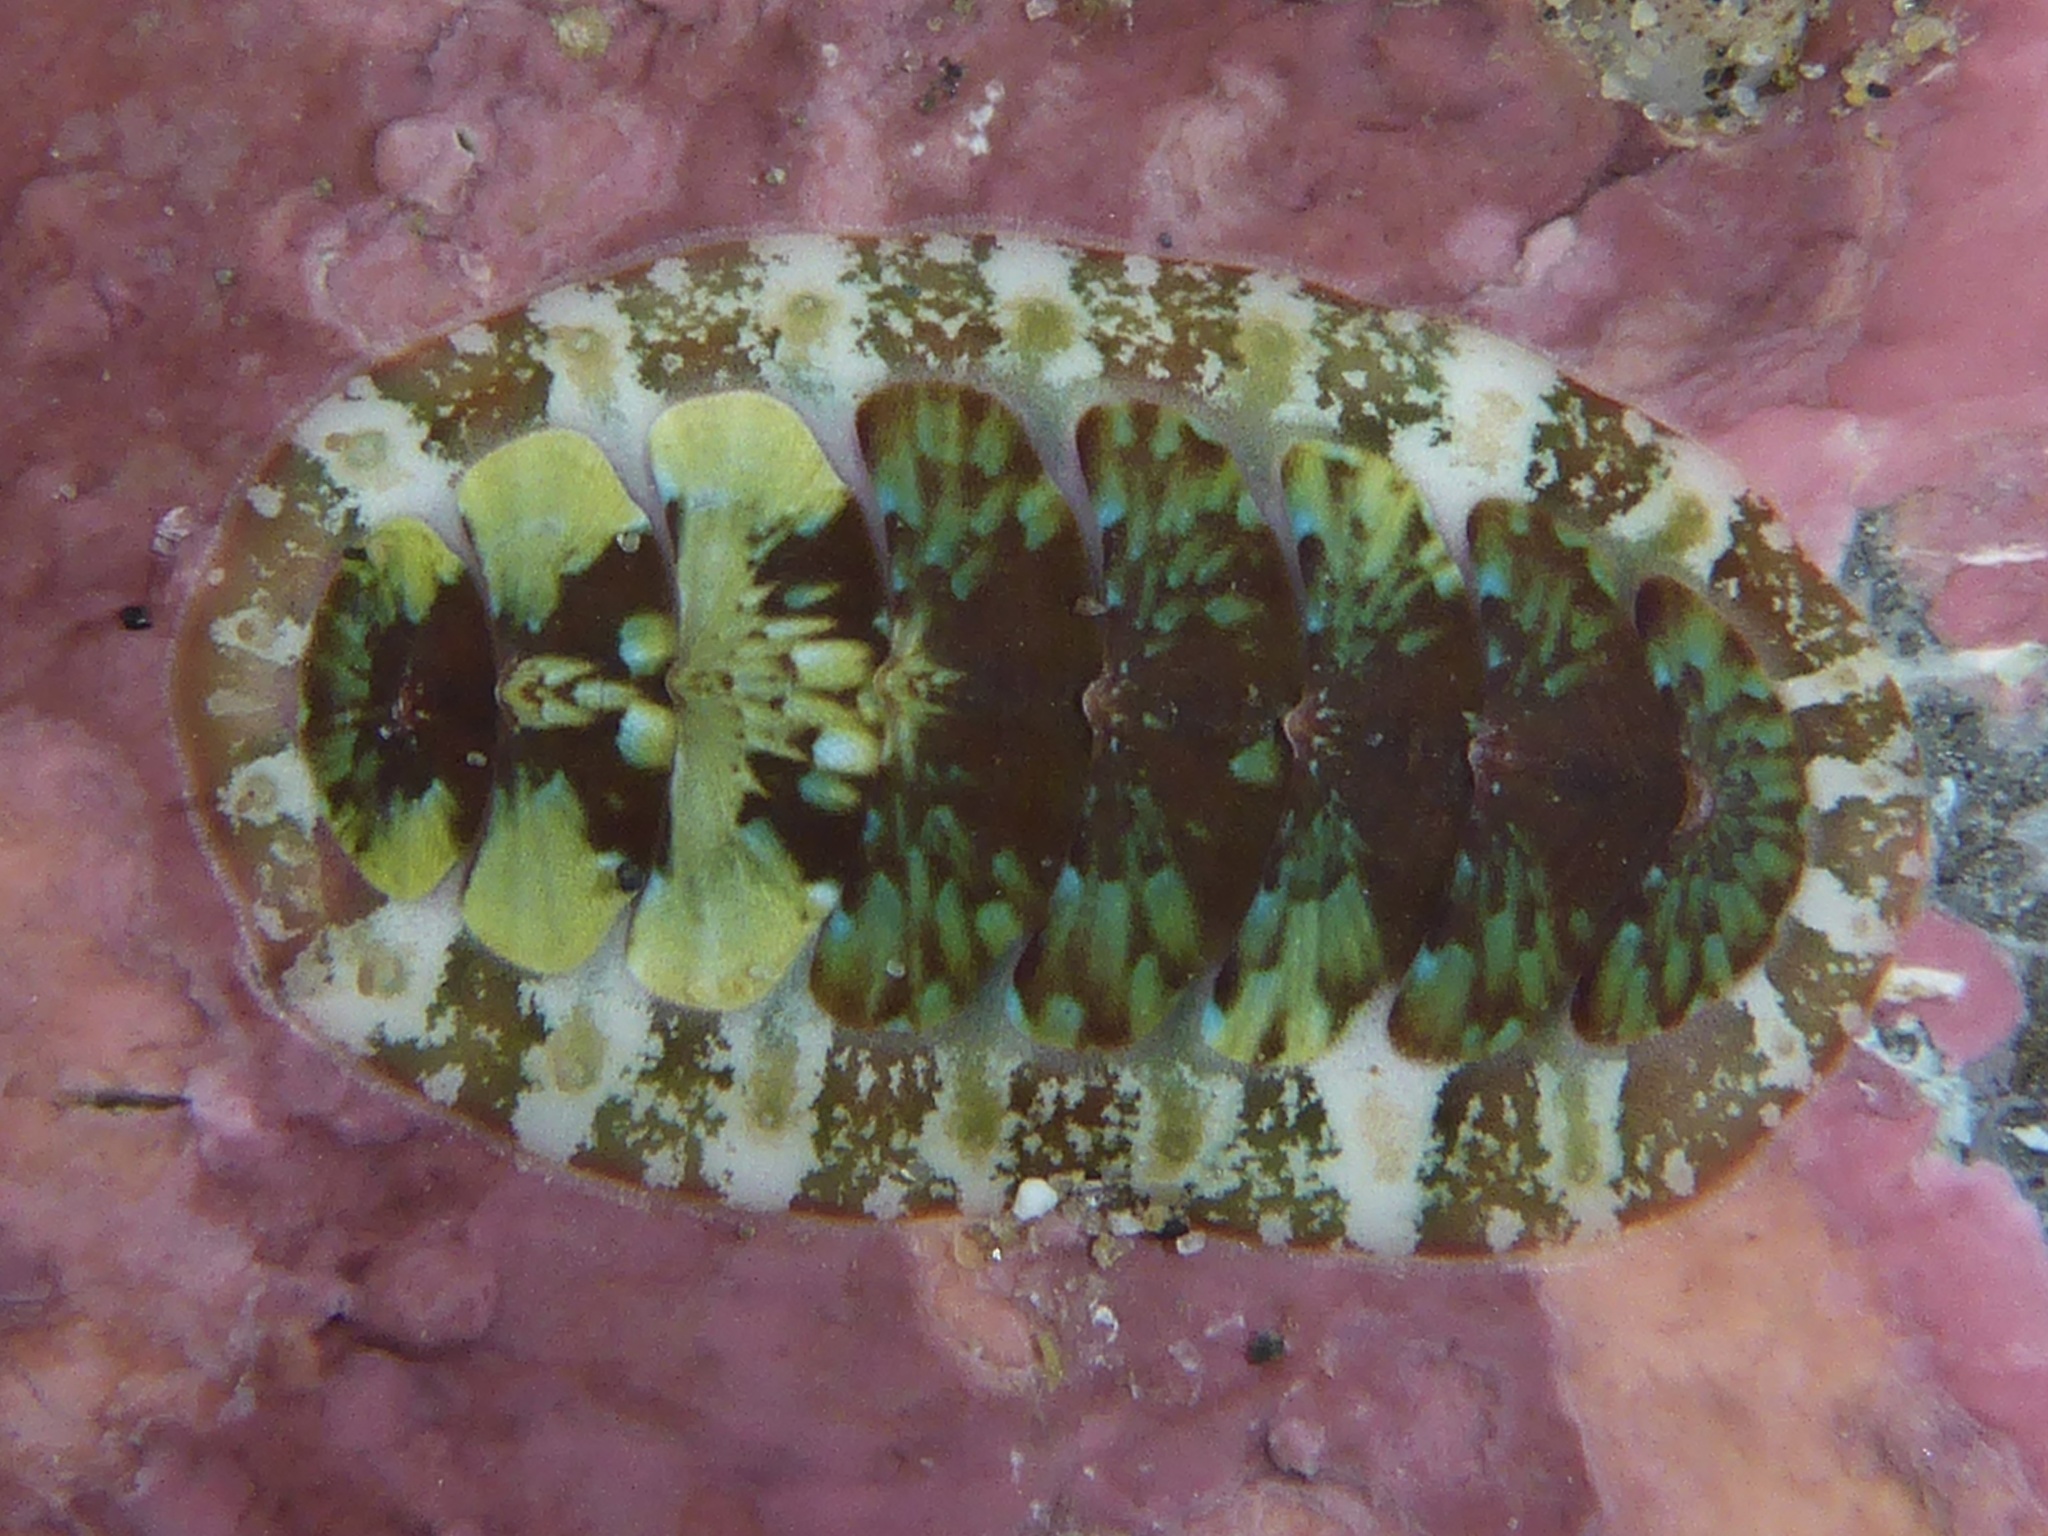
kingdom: Animalia
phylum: Mollusca
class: Polyplacophora
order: Chitonida
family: Mopaliidae
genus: Dendrochiton
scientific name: Dendrochiton flectens
